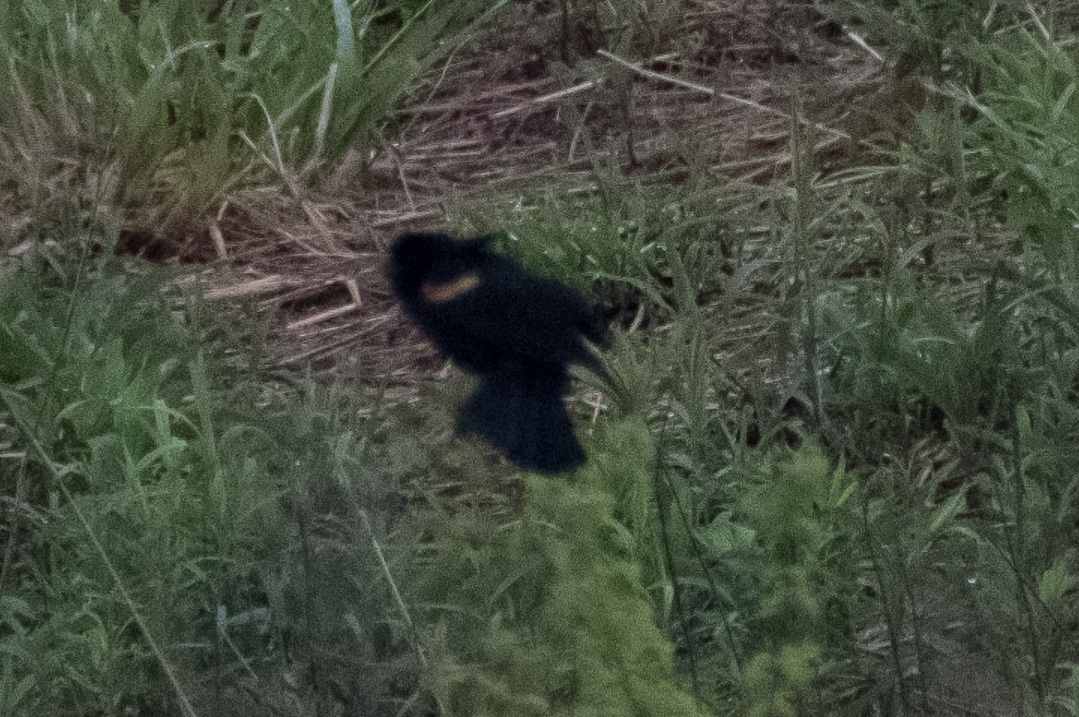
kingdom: Animalia
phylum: Chordata
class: Aves
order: Passeriformes
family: Icteridae
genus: Agelaius
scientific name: Agelaius phoeniceus
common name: Red-winged blackbird
